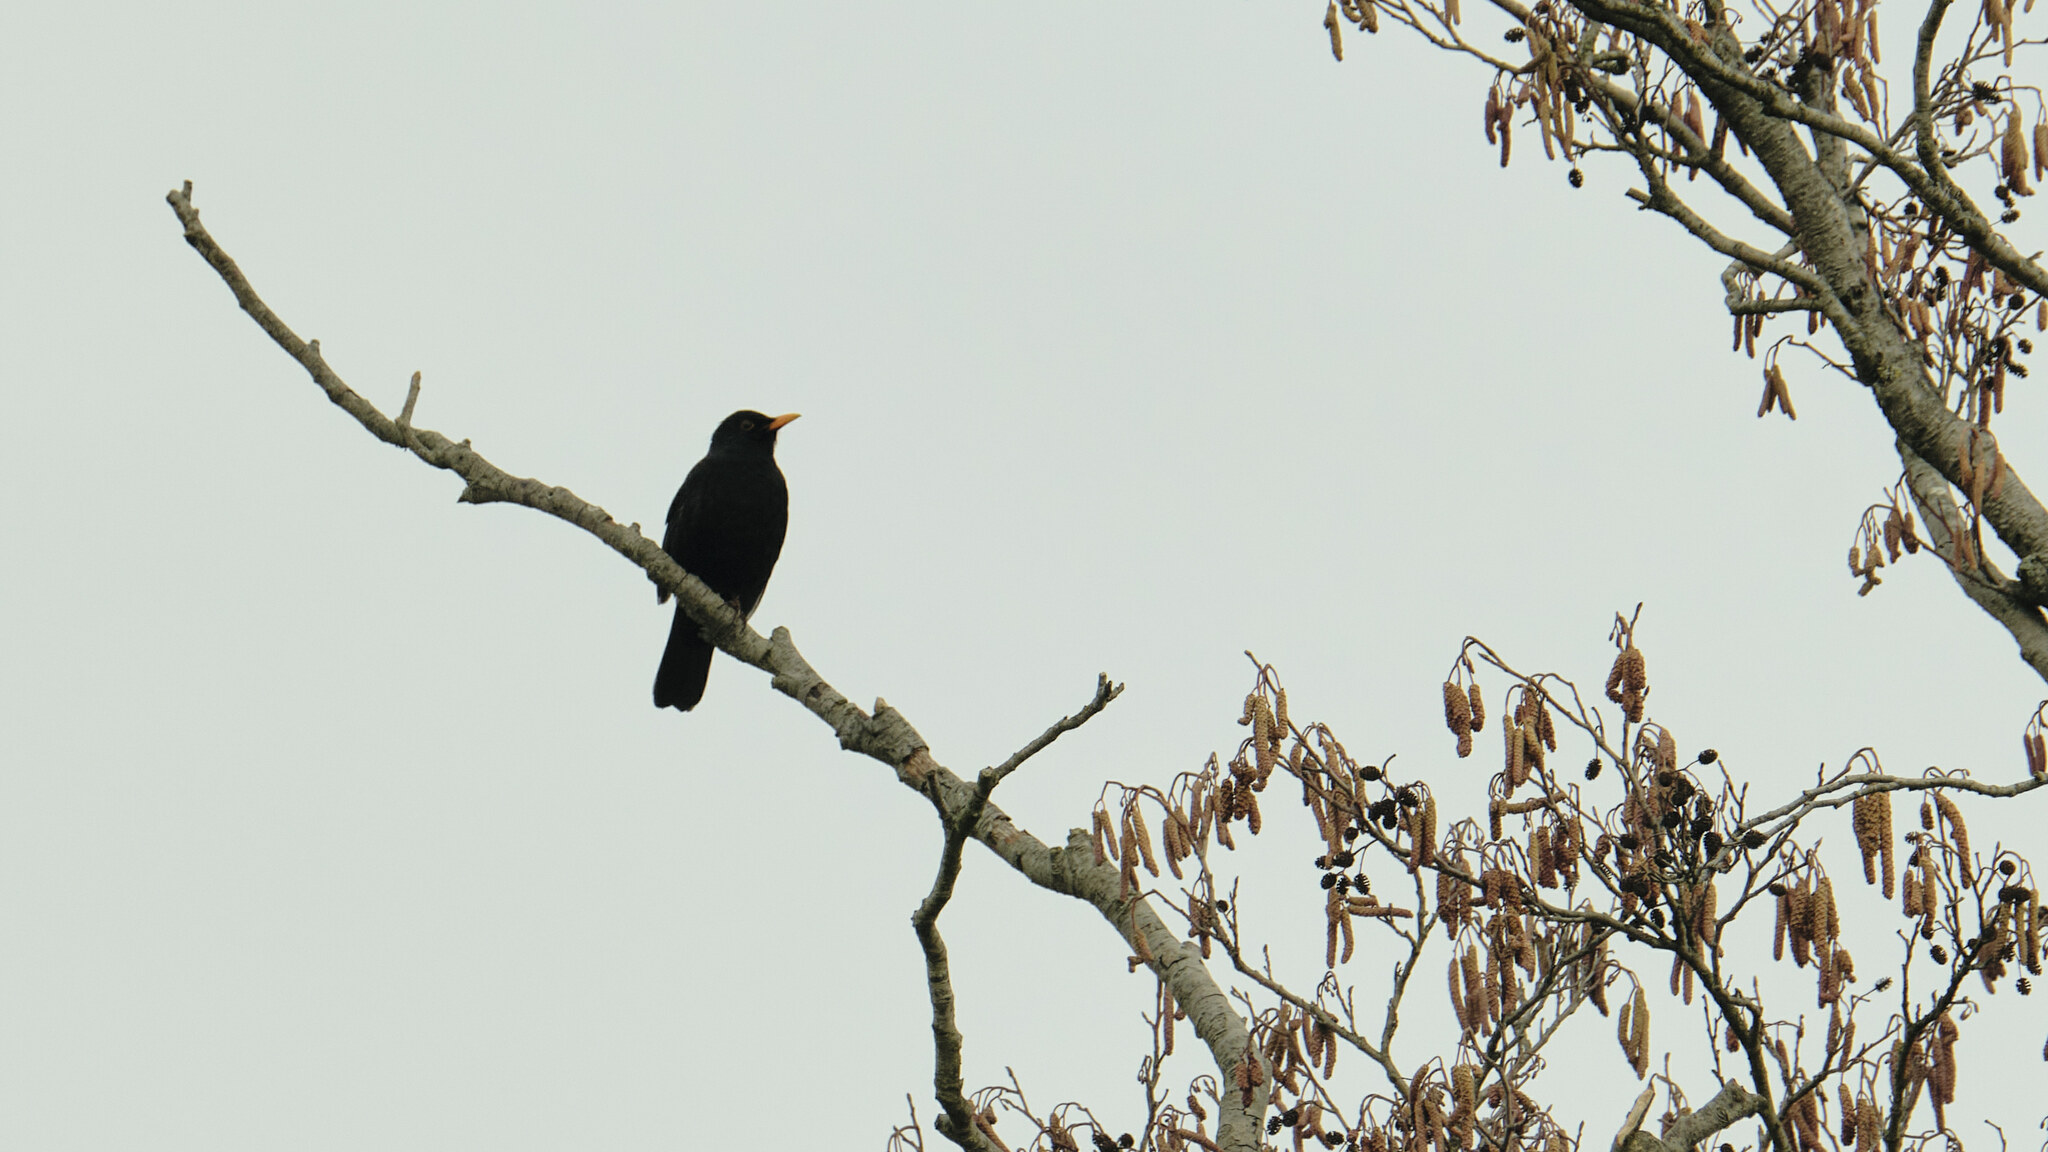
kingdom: Animalia
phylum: Chordata
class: Aves
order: Passeriformes
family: Turdidae
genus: Turdus
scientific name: Turdus merula
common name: Common blackbird
